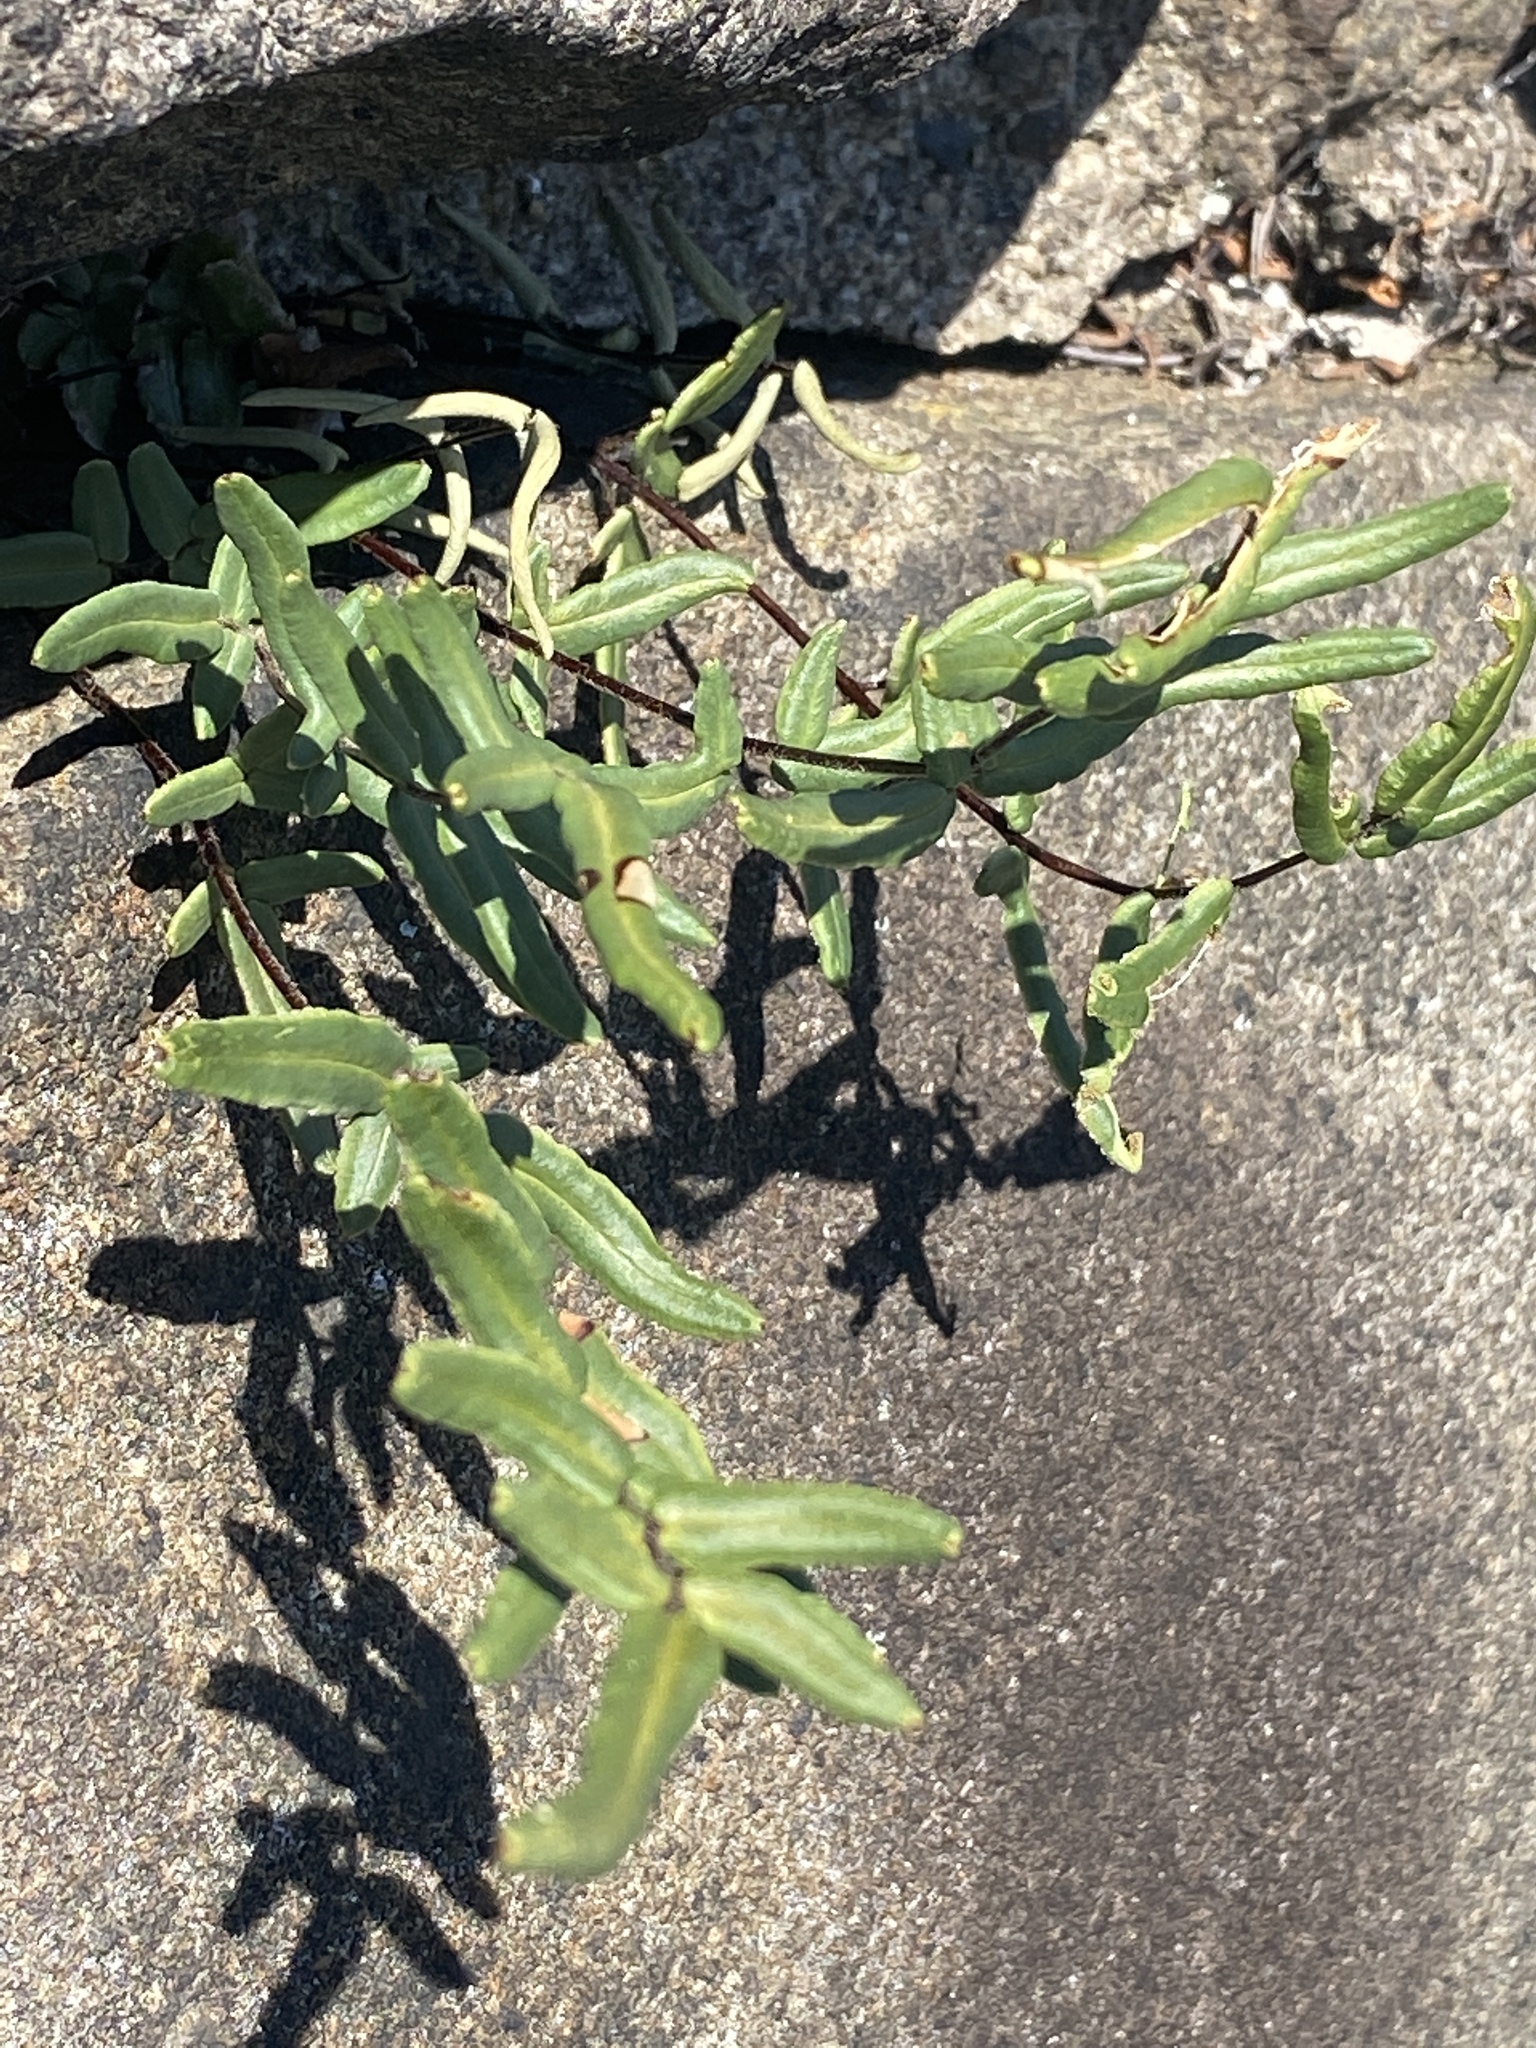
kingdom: Plantae
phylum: Tracheophyta
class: Polypodiopsida
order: Polypodiales
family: Pteridaceae
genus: Pellaea
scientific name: Pellaea atropurpurea
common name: Hairy cliffbrake
